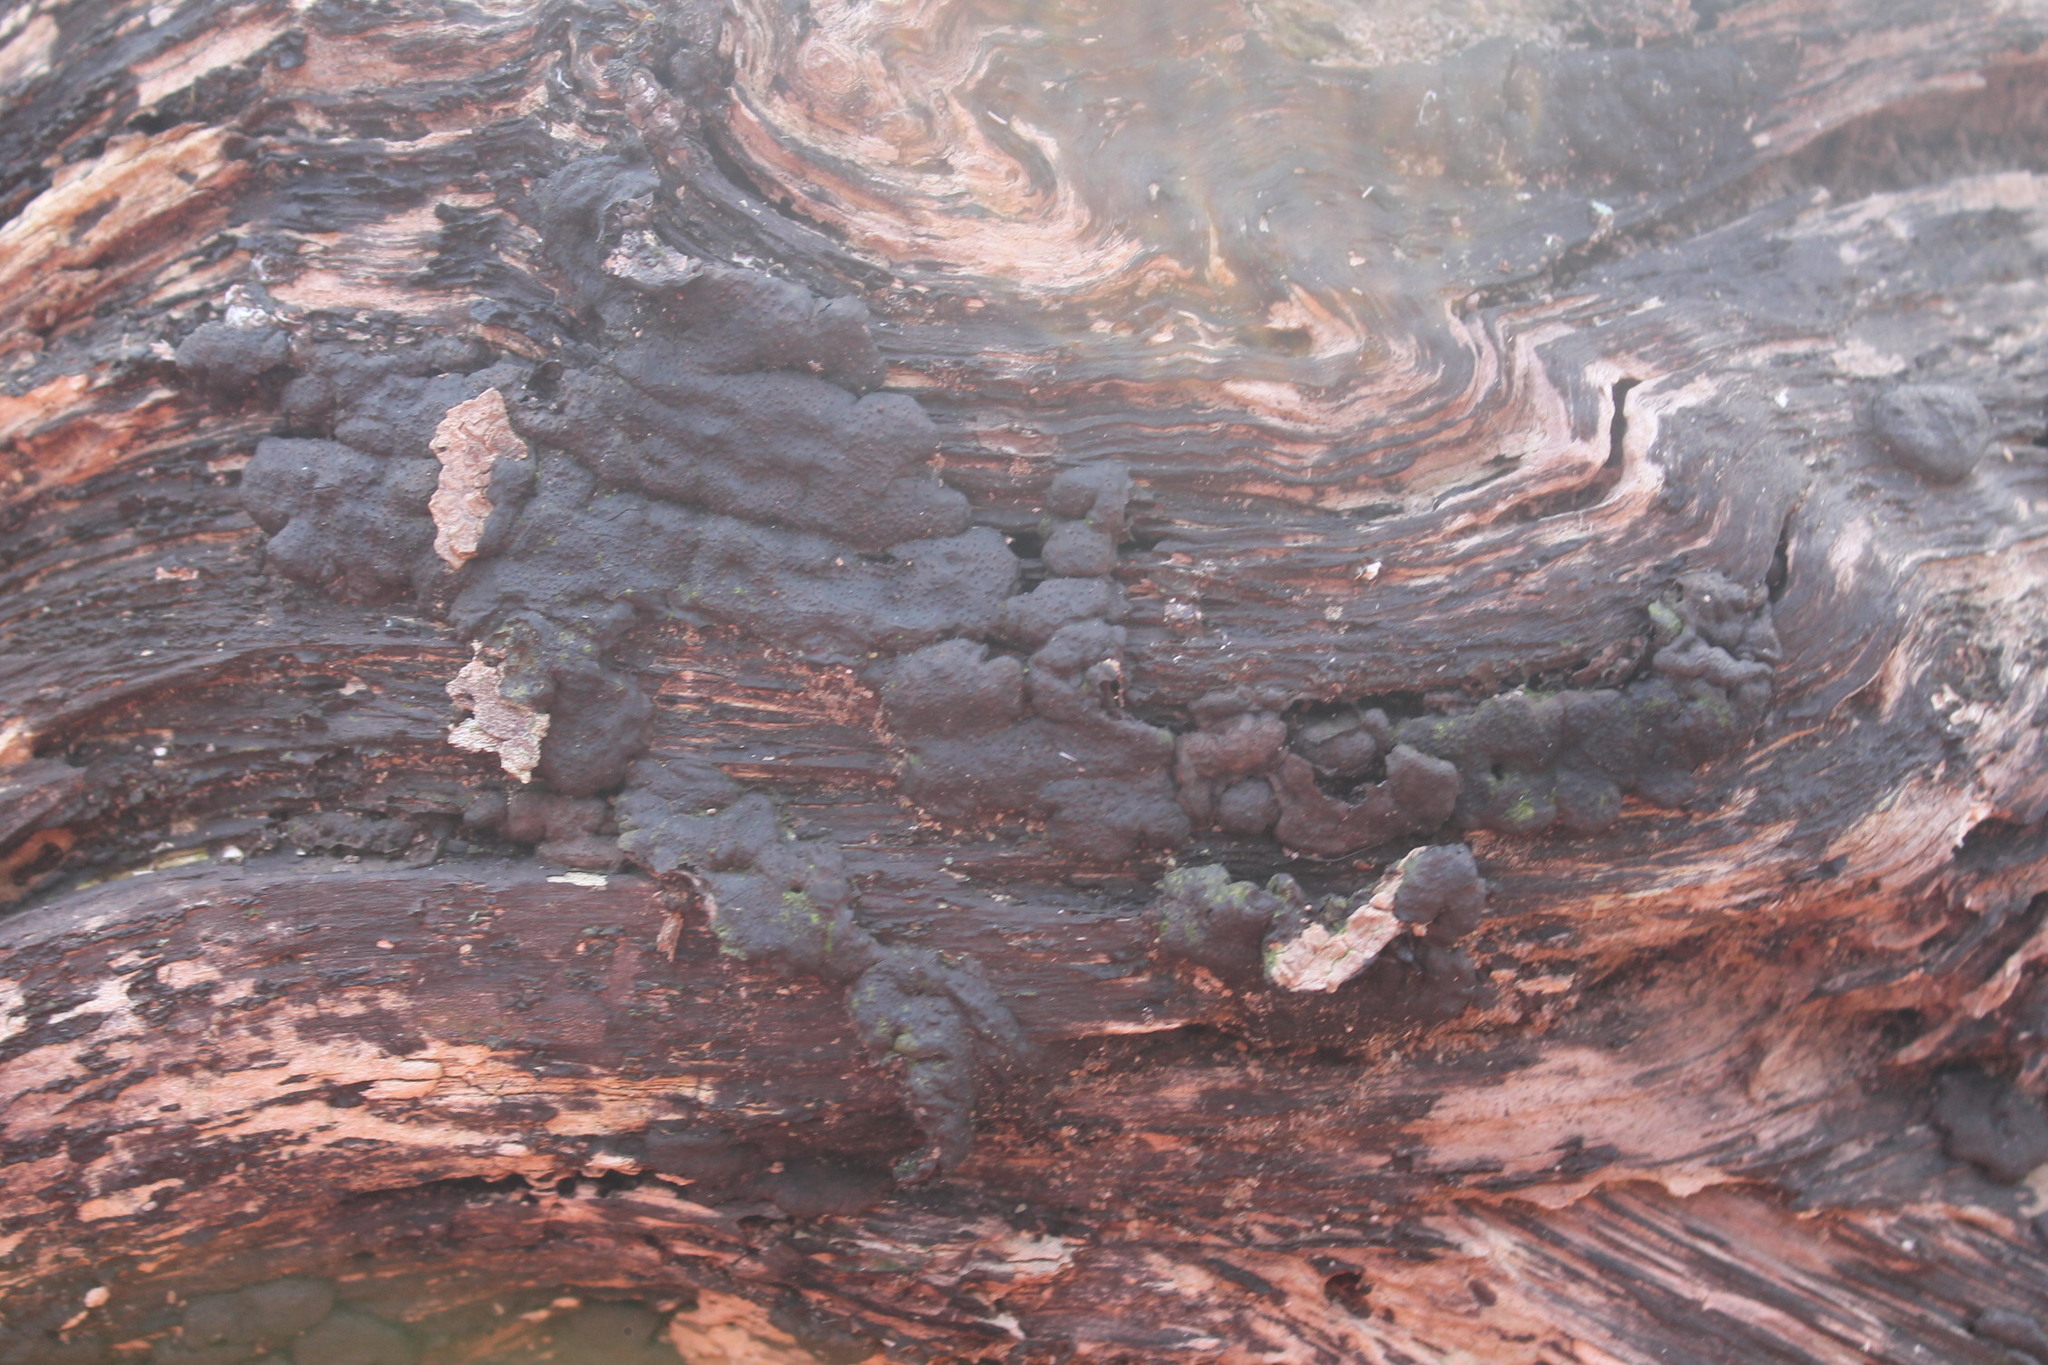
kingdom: Fungi
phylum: Ascomycota
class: Sordariomycetes
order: Xylariales
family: Xylariaceae
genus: Kretzschmaria
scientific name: Kretzschmaria deusta
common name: Brittle cinder
